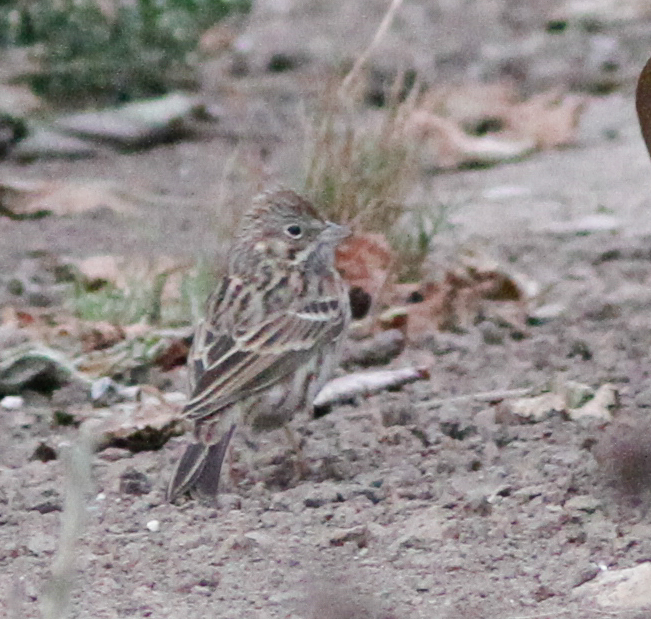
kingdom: Animalia
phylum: Chordata
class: Aves
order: Passeriformes
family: Passerellidae
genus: Pooecetes
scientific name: Pooecetes gramineus
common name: Vesper sparrow
